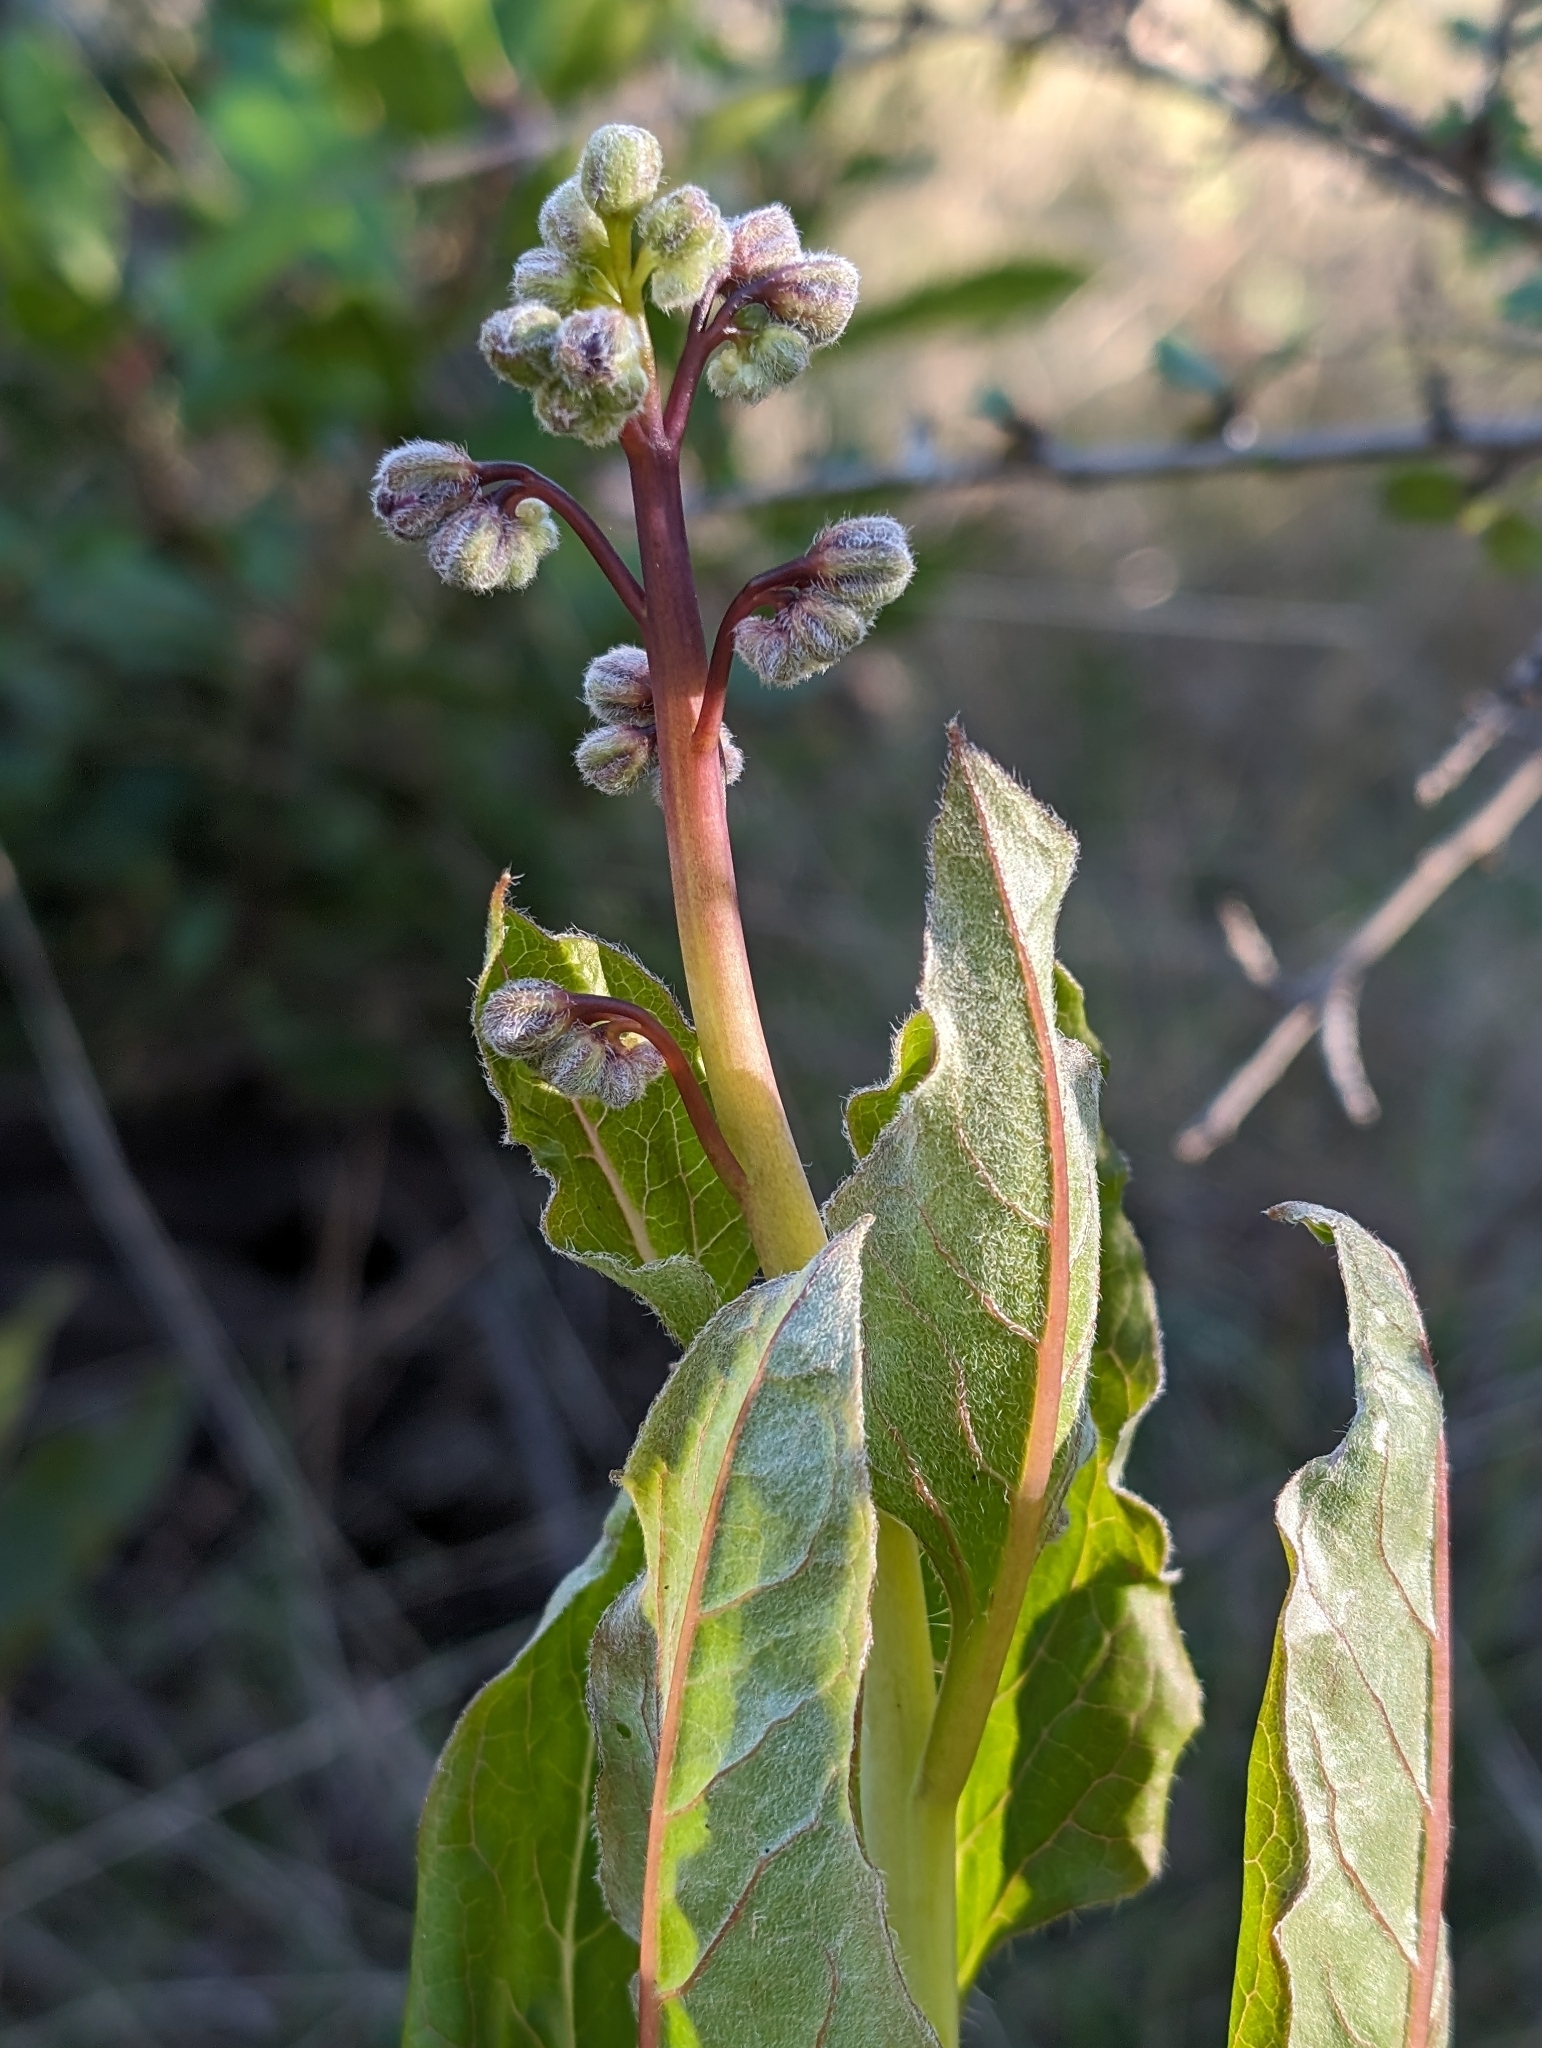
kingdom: Plantae
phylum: Tracheophyta
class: Magnoliopsida
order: Boraginales
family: Boraginaceae
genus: Adelinia
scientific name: Adelinia grande
